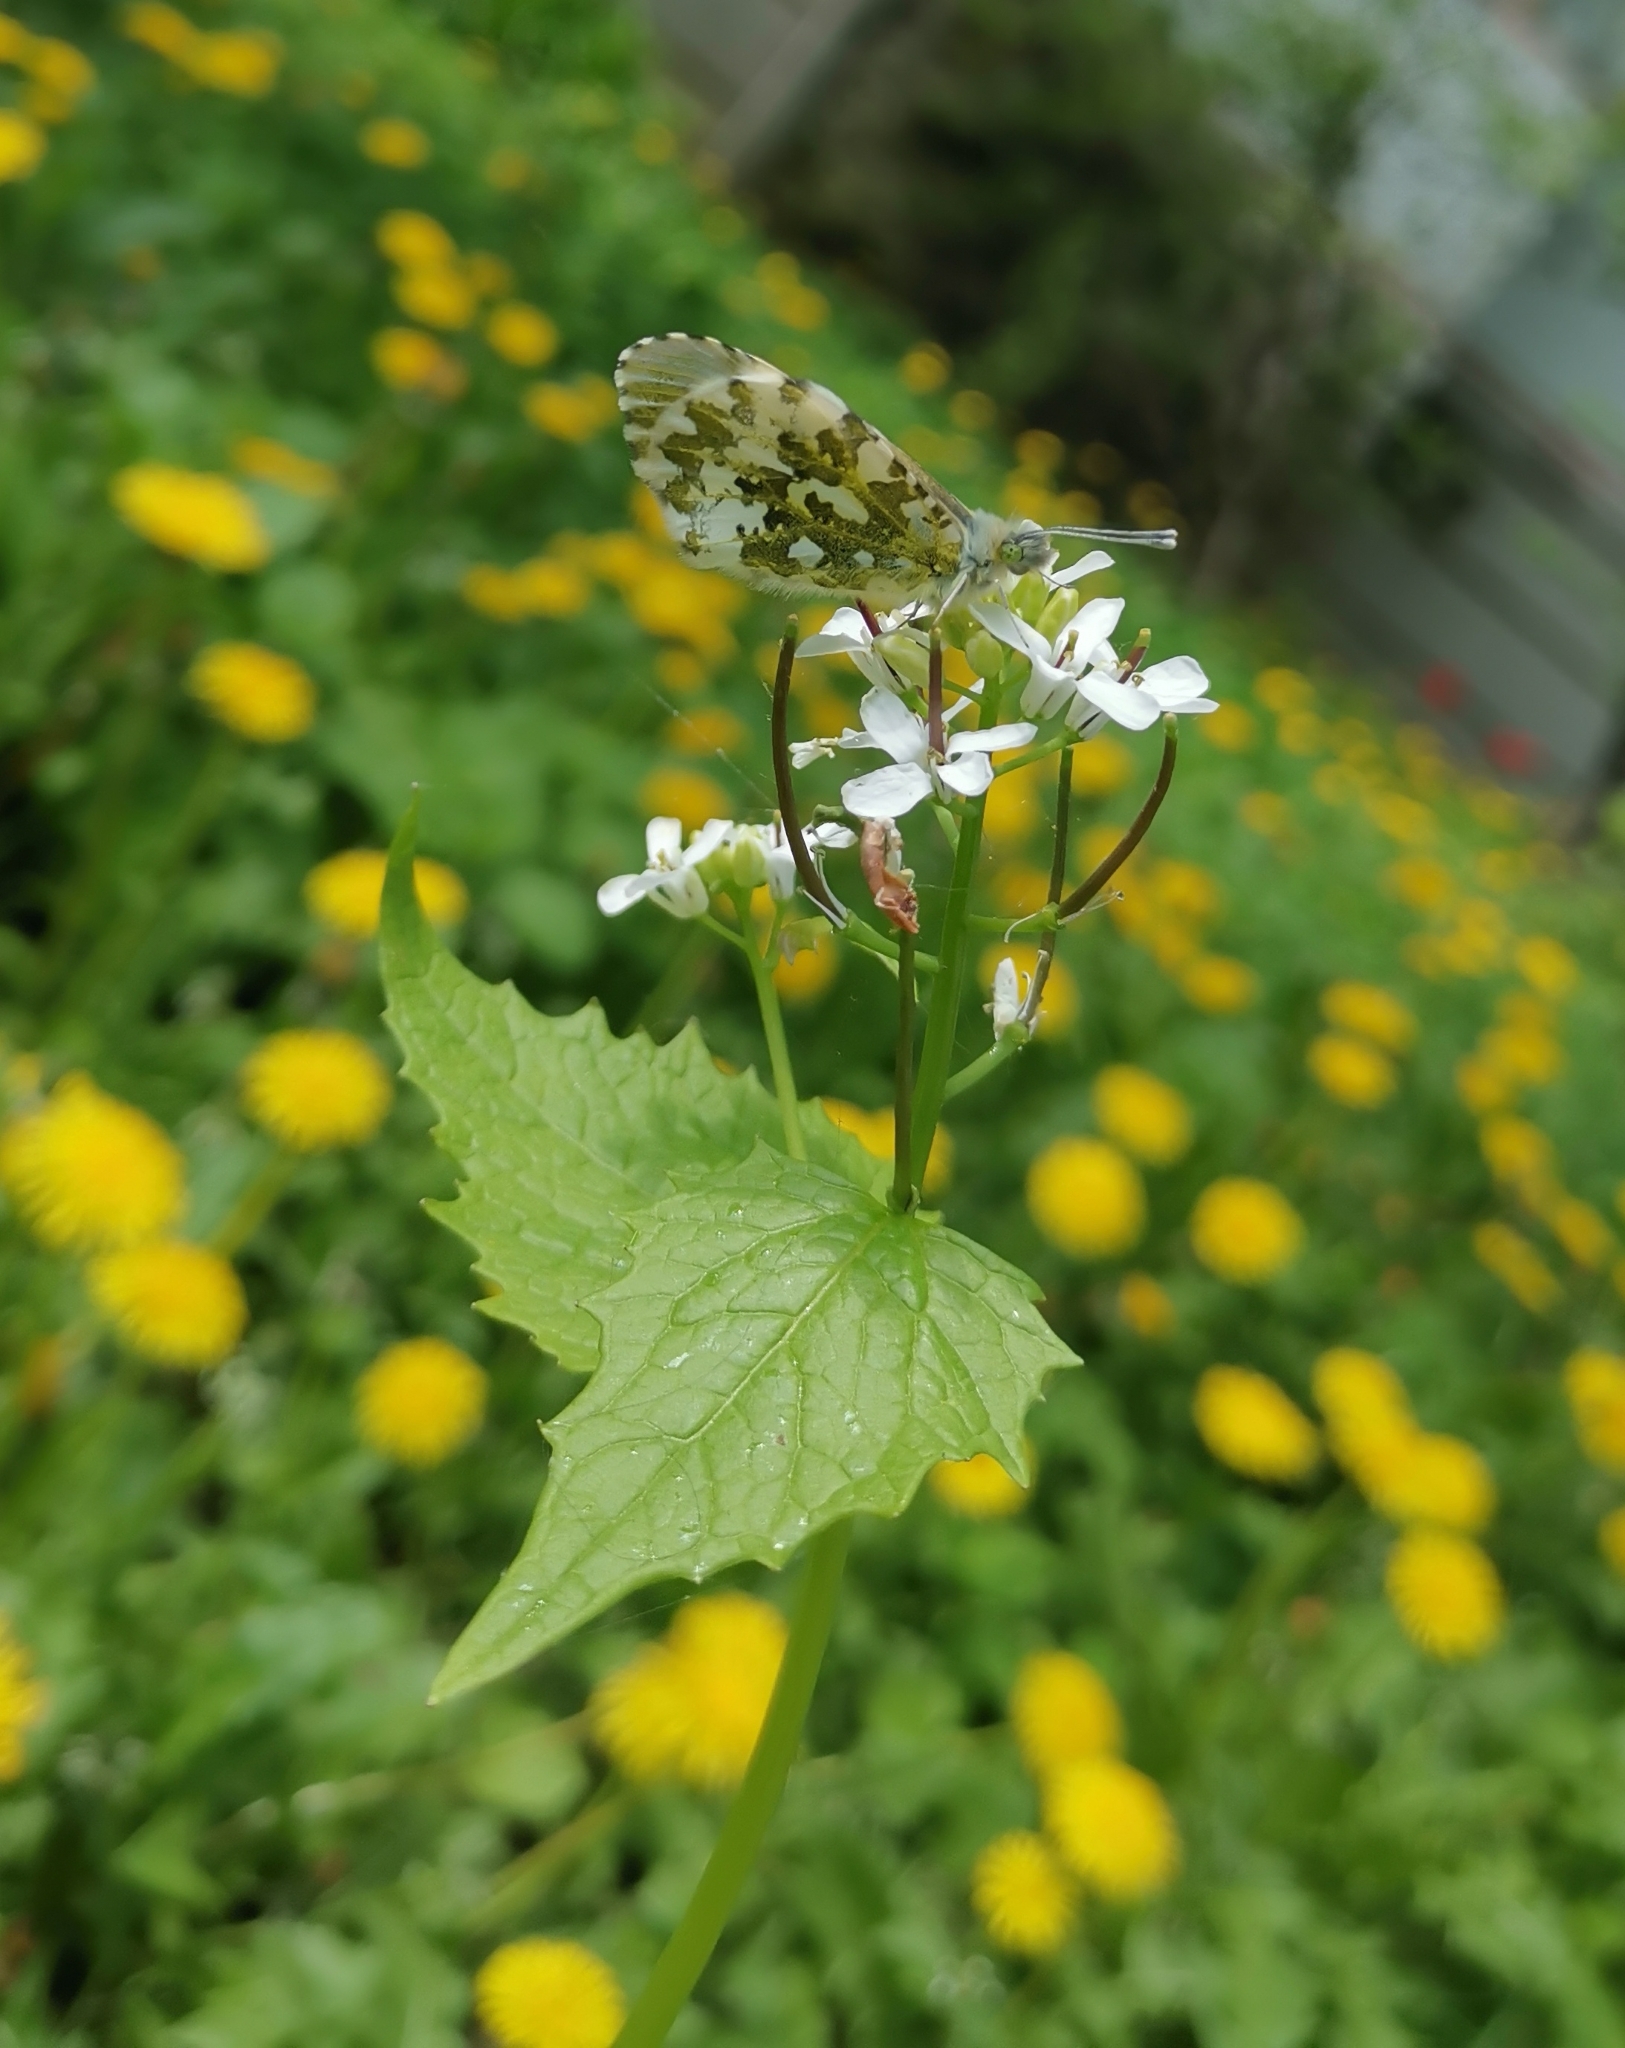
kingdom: Animalia
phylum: Arthropoda
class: Insecta
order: Lepidoptera
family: Pieridae
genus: Anthocharis
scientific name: Anthocharis cardamines
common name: Orange-tip
